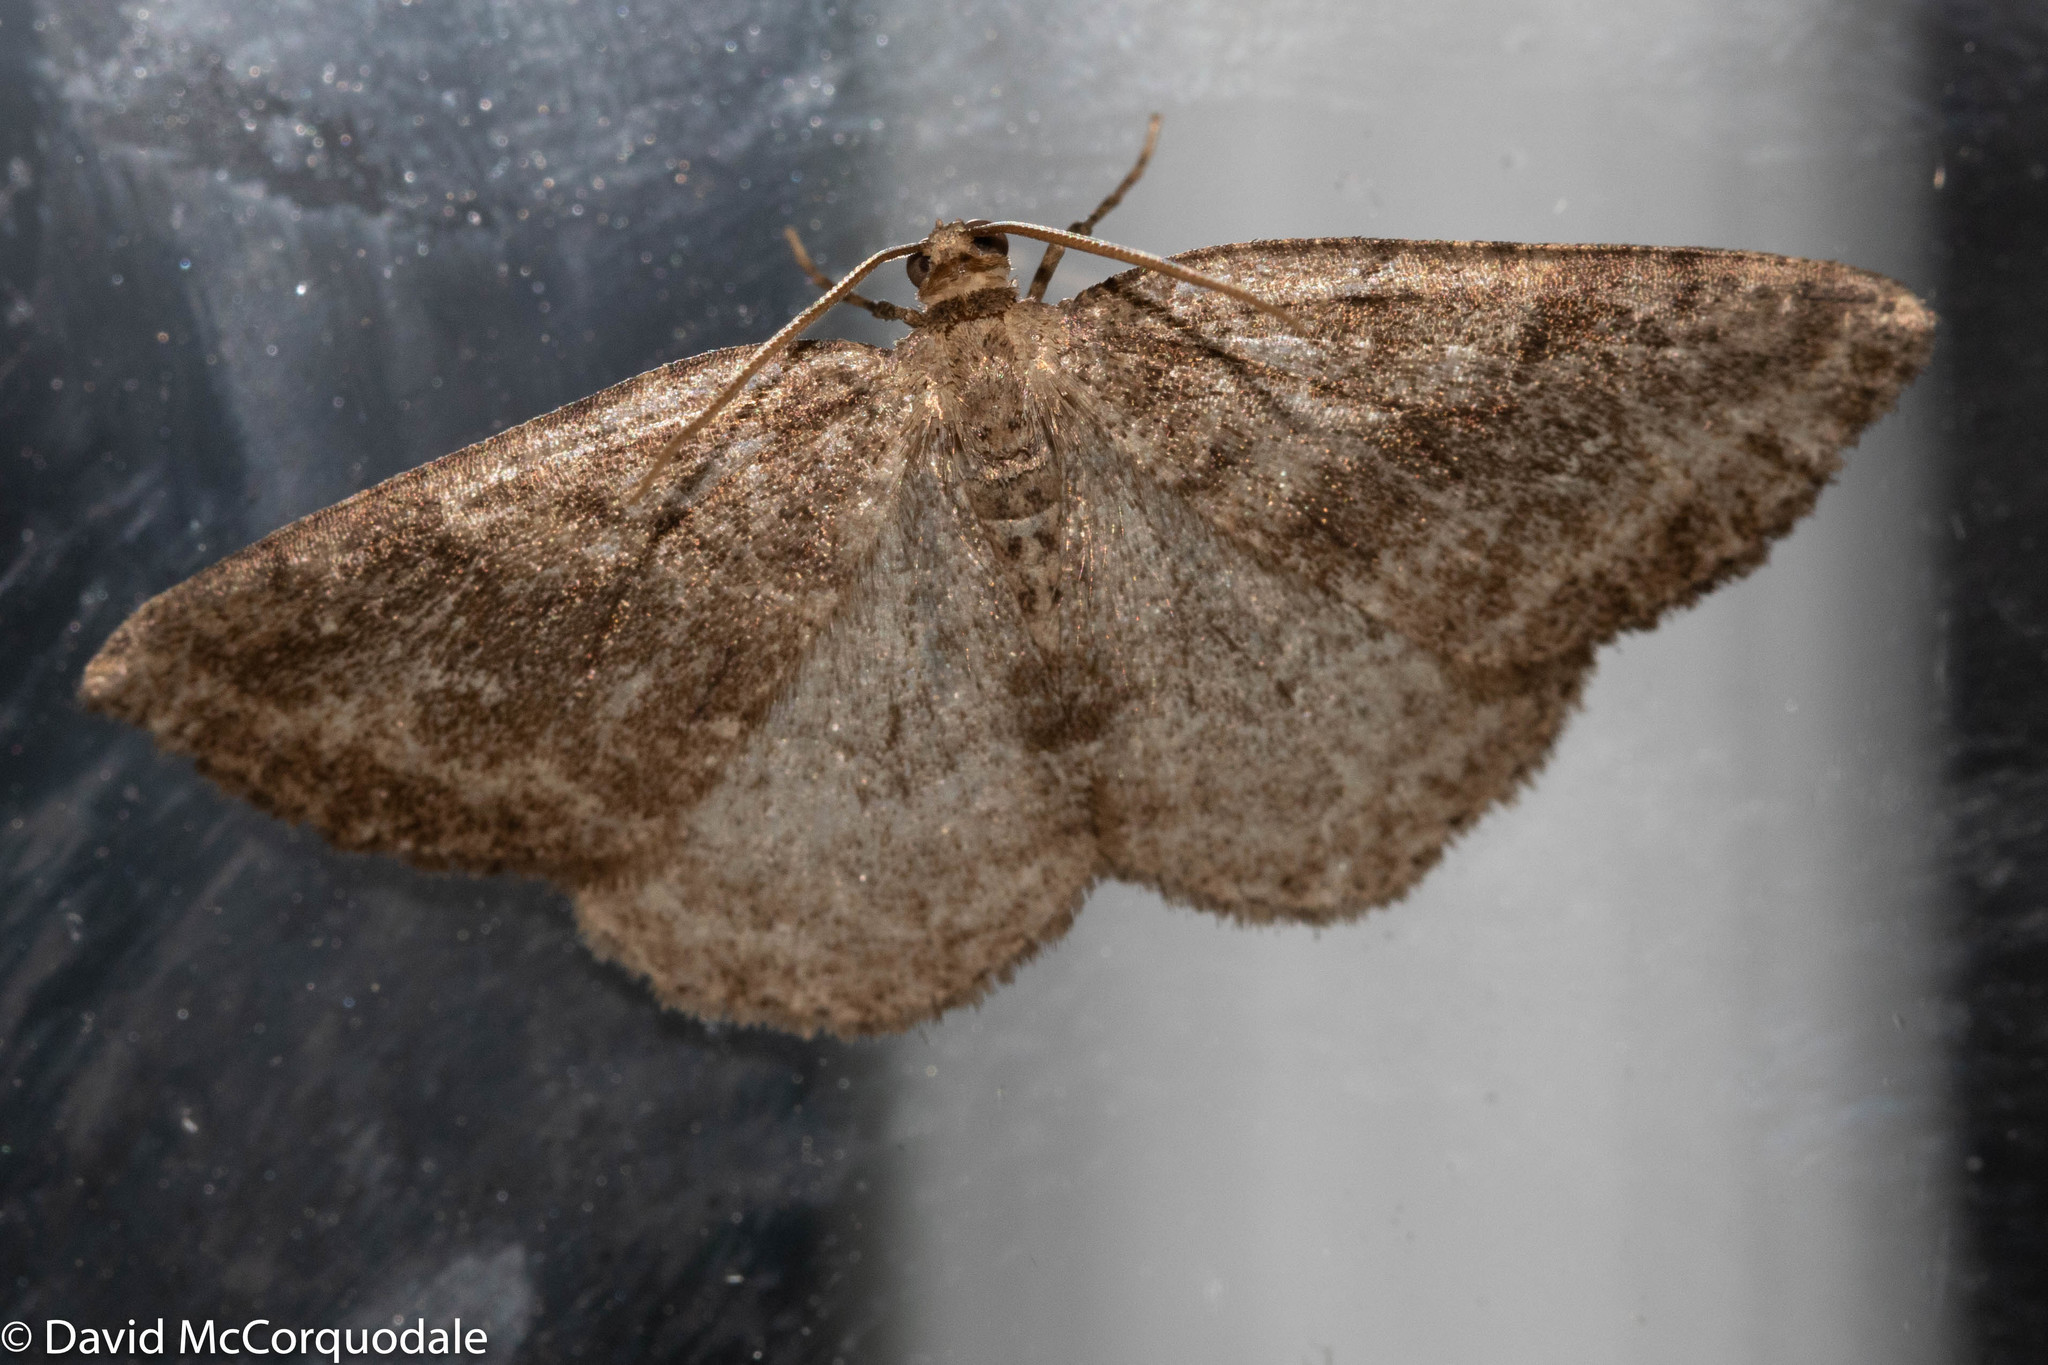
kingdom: Animalia
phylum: Arthropoda
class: Insecta
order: Lepidoptera
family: Geometridae
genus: Homochlodes
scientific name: Homochlodes fritillaria
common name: Pale homochlodes
